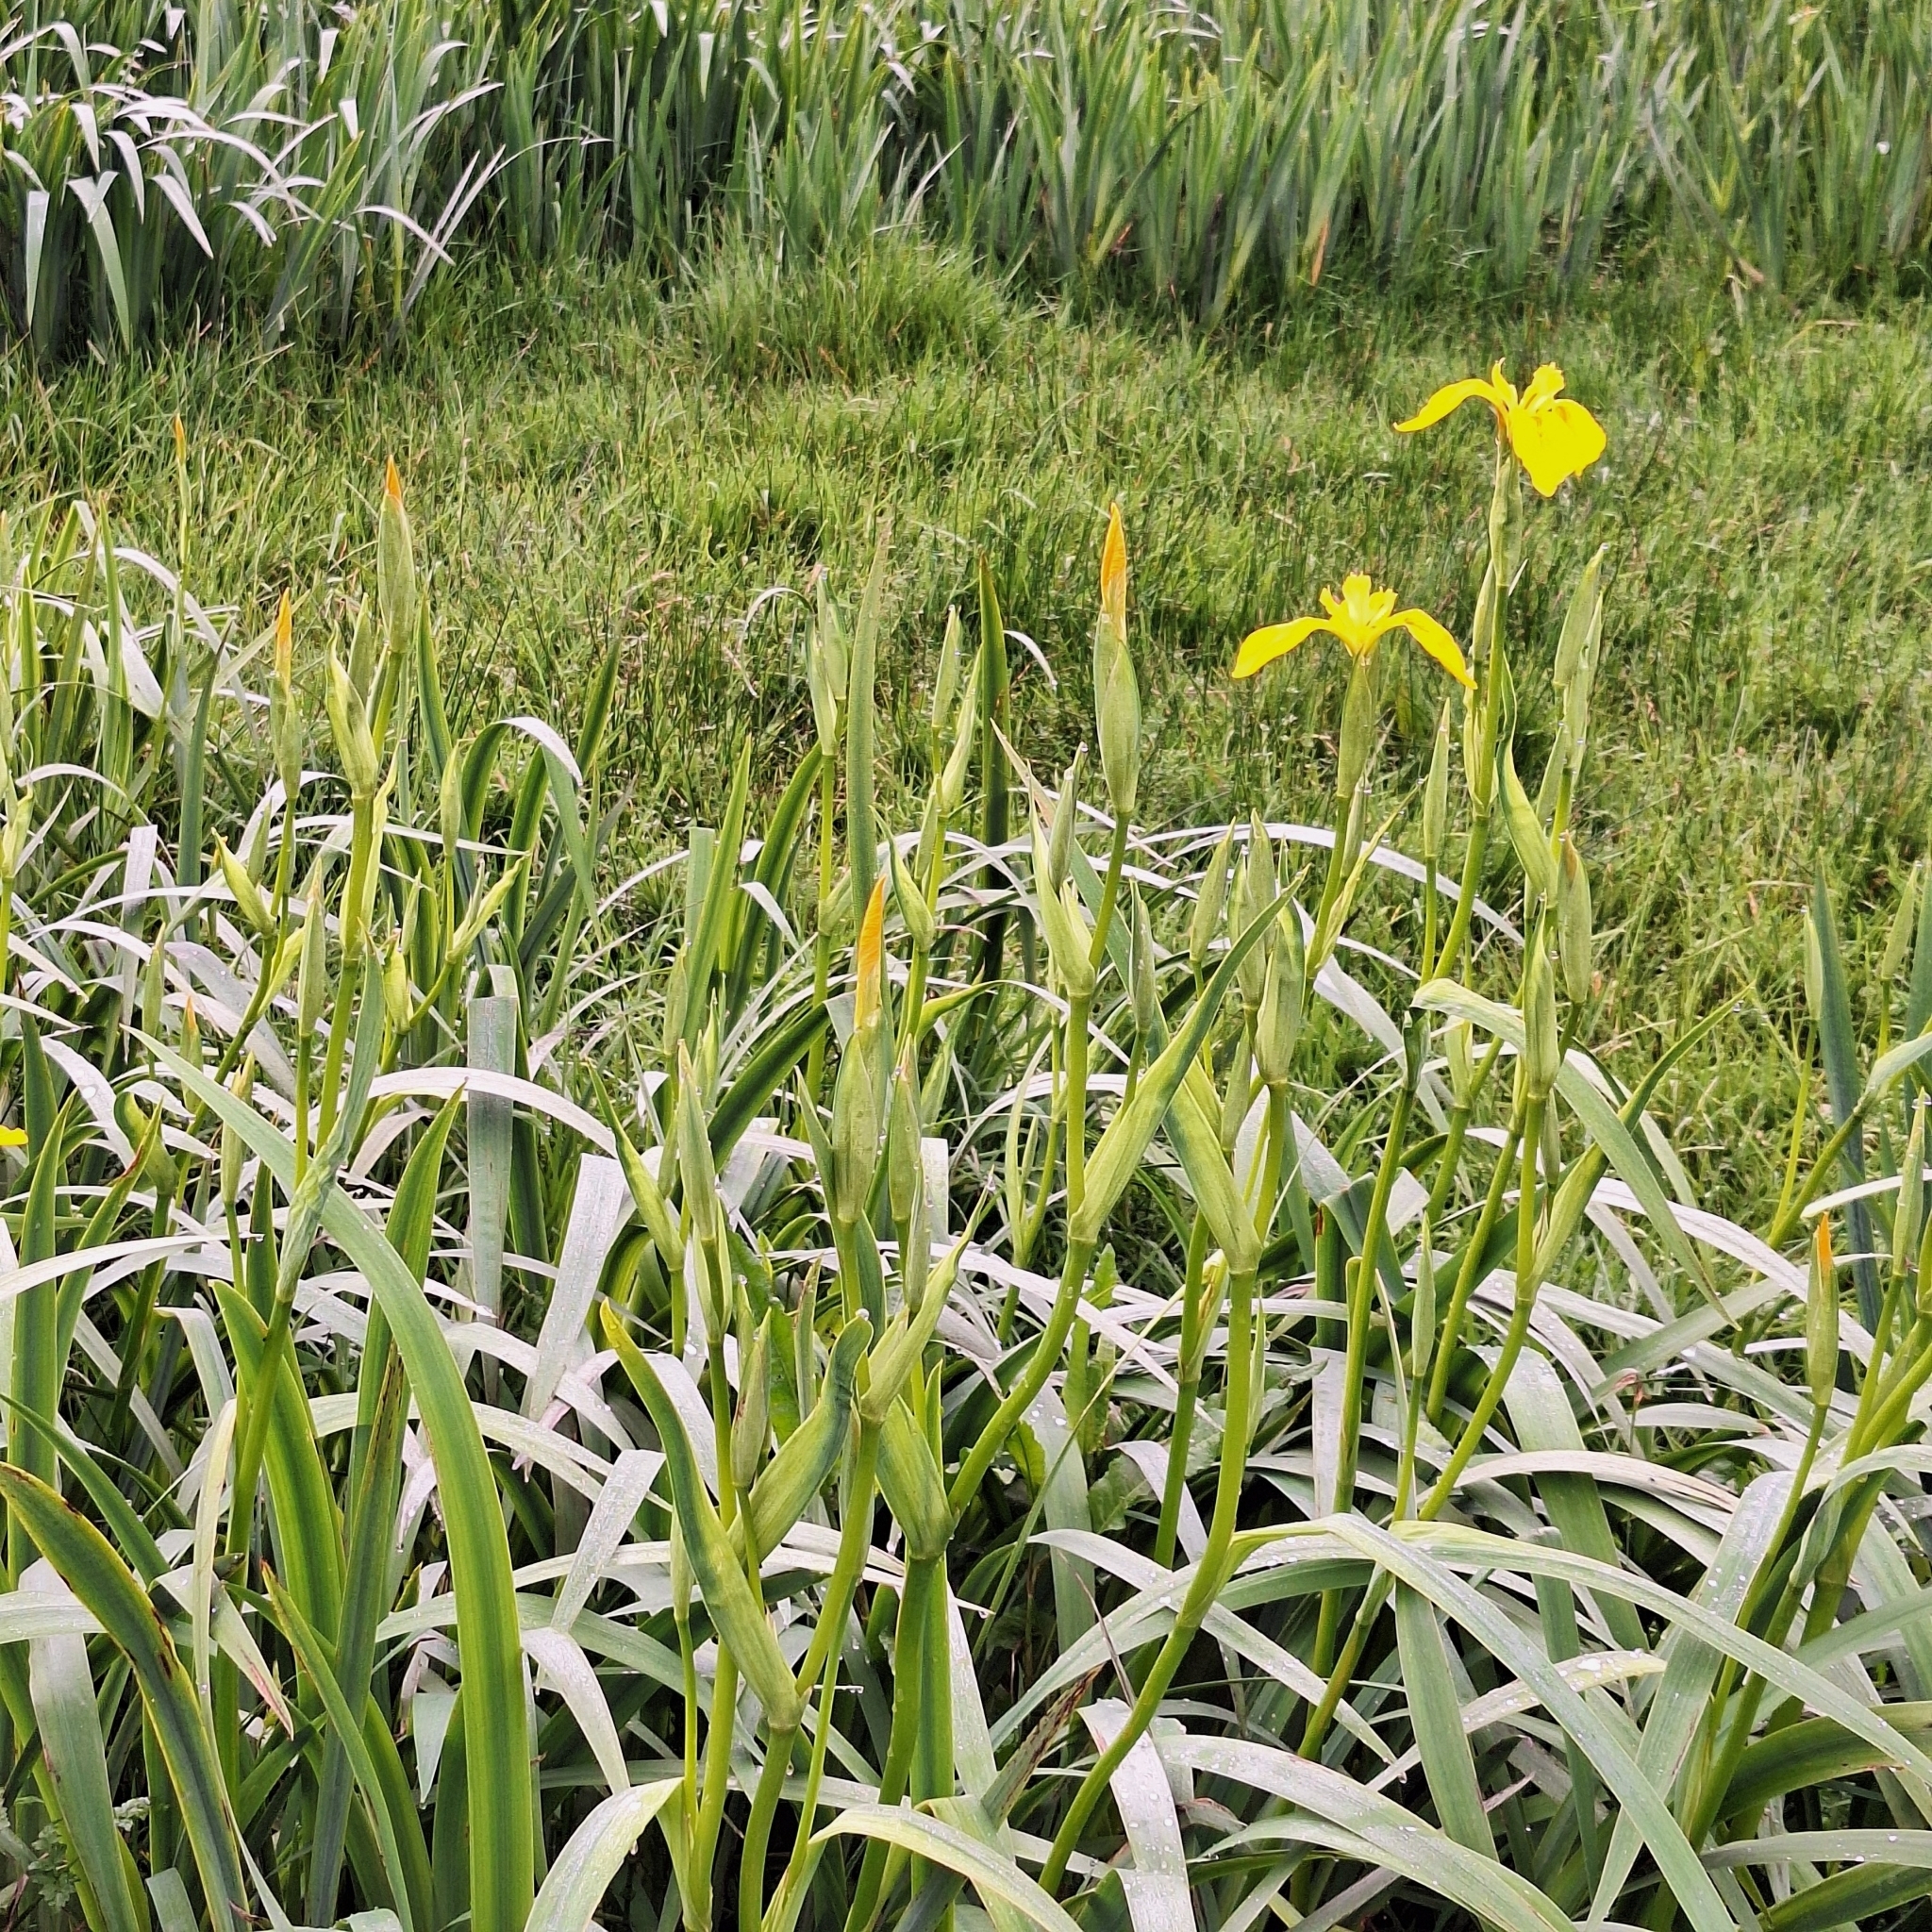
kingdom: Plantae
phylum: Tracheophyta
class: Liliopsida
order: Asparagales
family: Iridaceae
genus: Iris
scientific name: Iris pseudacorus
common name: Yellow flag
